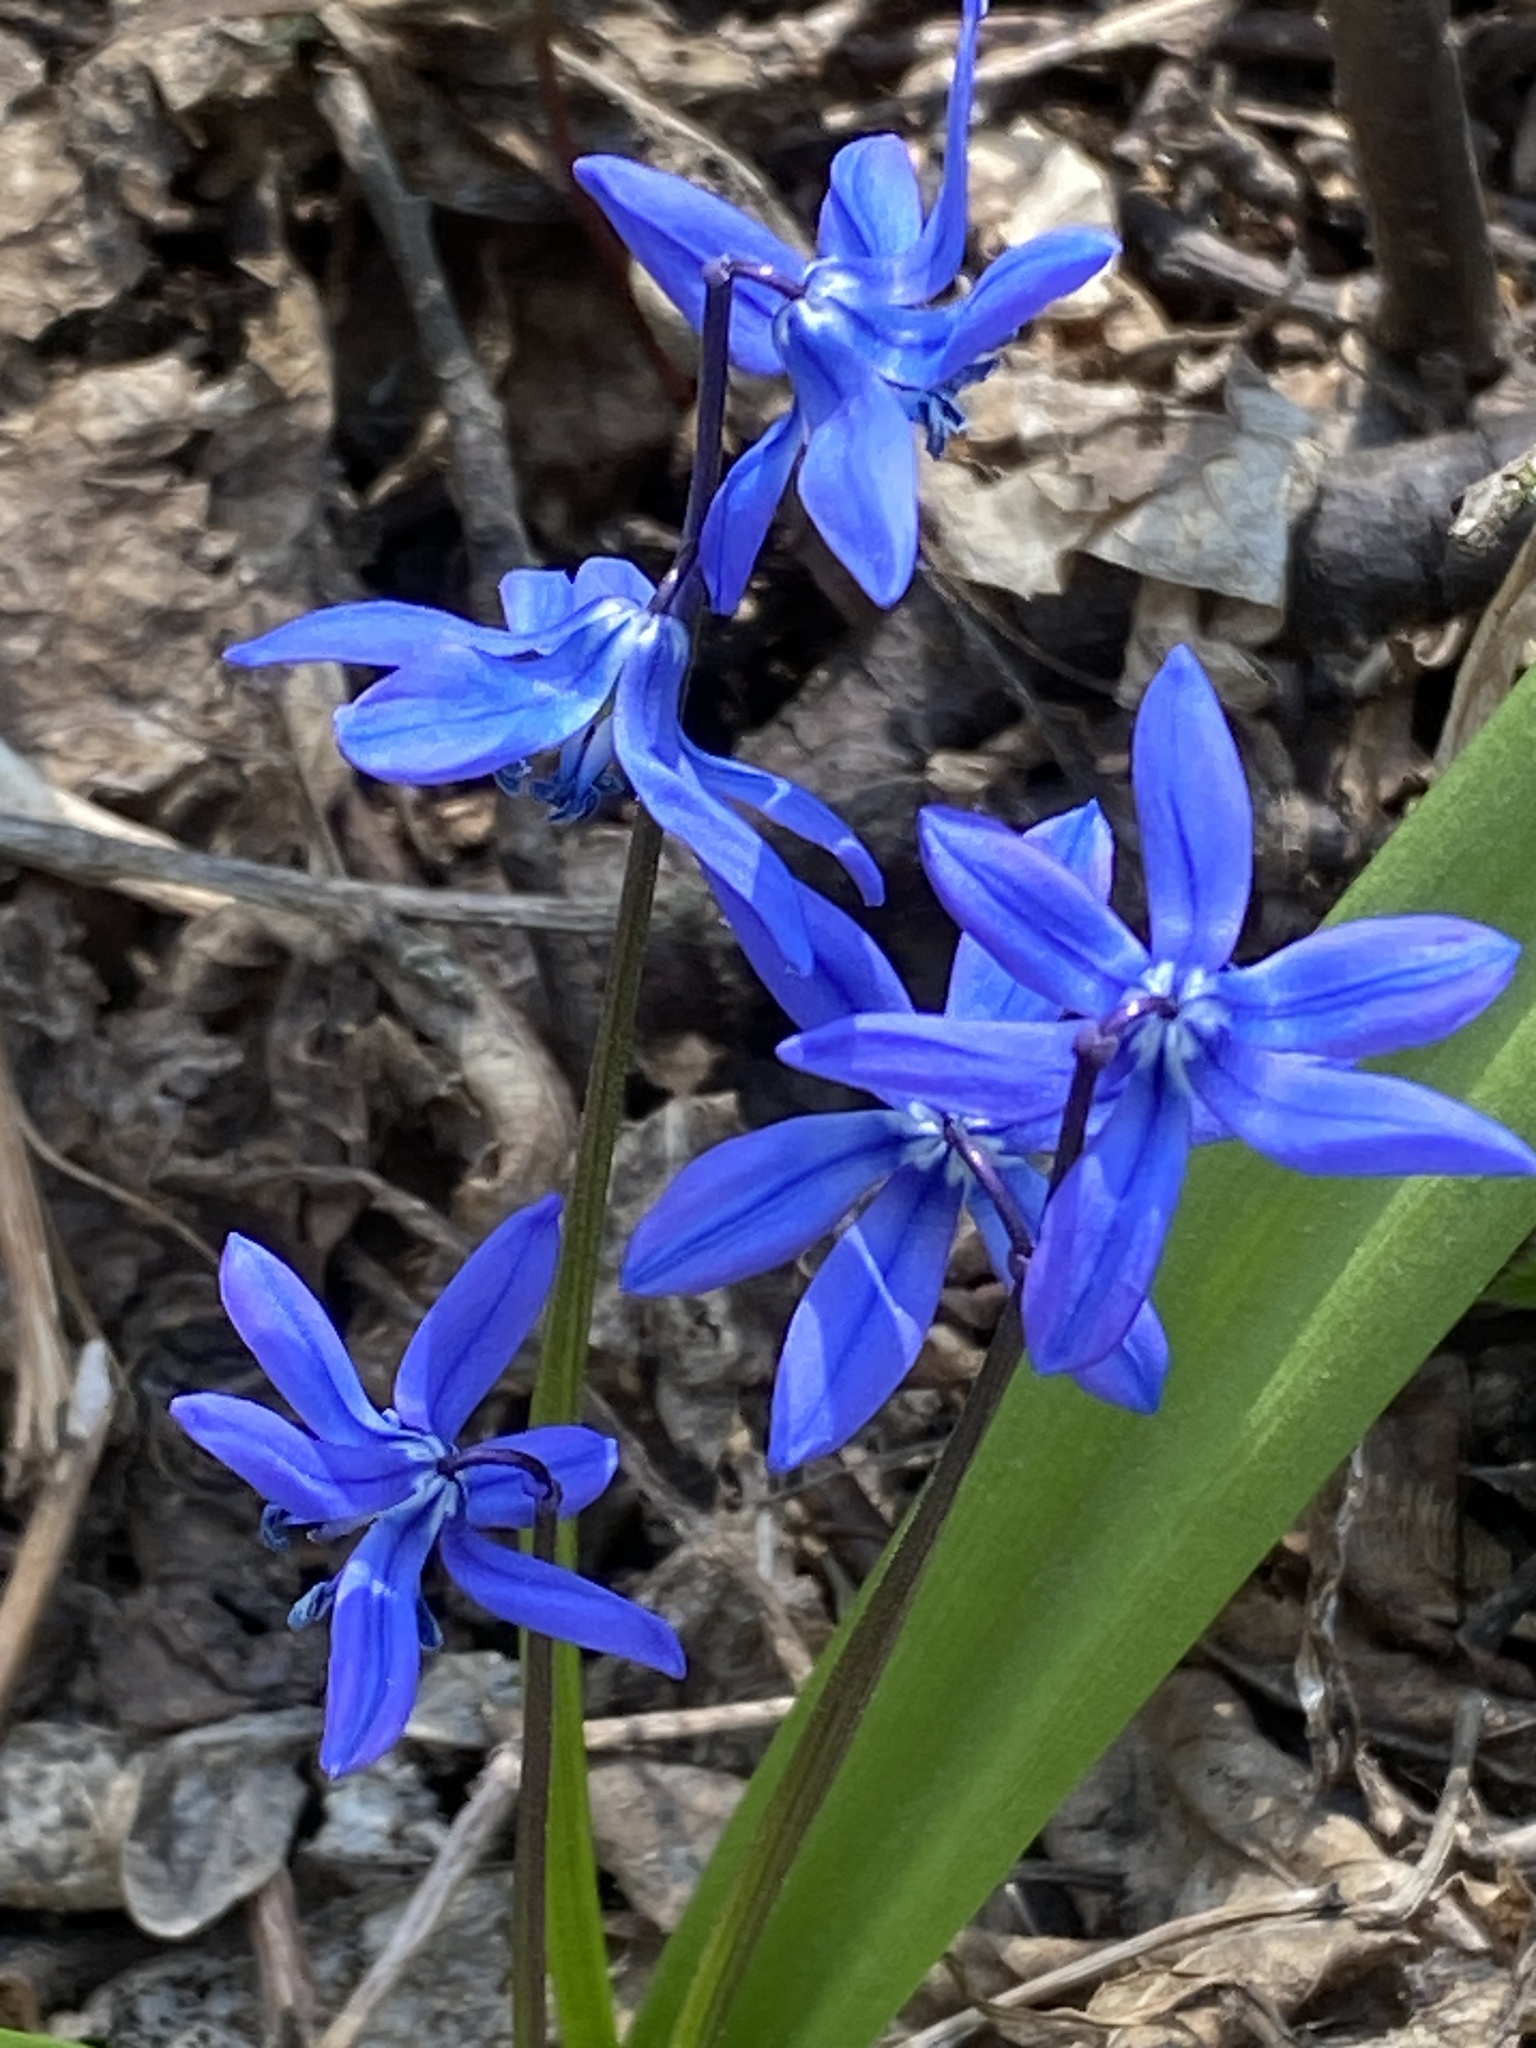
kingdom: Plantae
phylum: Tracheophyta
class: Liliopsida
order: Asparagales
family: Asparagaceae
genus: Scilla
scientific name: Scilla siberica
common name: Siberian squill
